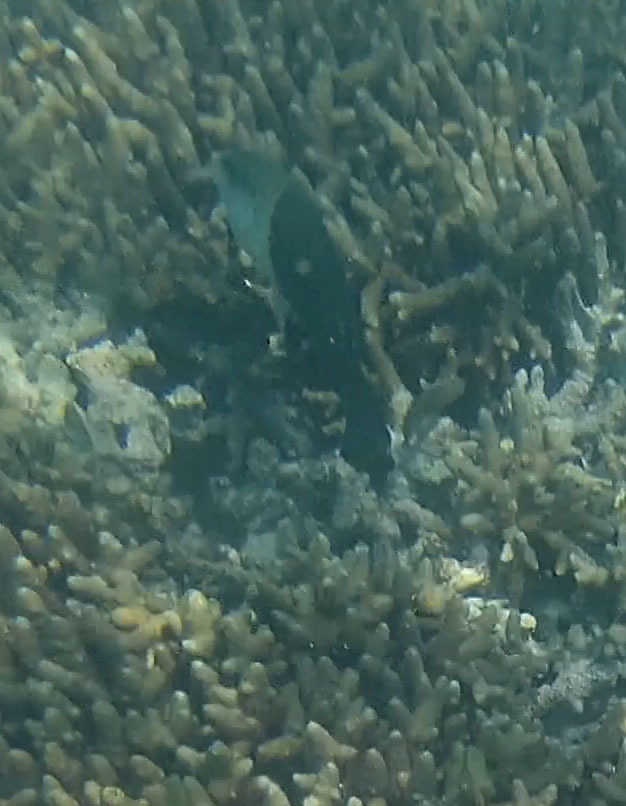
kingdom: Animalia
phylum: Chordata
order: Perciformes
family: Labridae
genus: Hemigymnus
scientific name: Hemigymnus melapterus
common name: Blackeye thicklip
